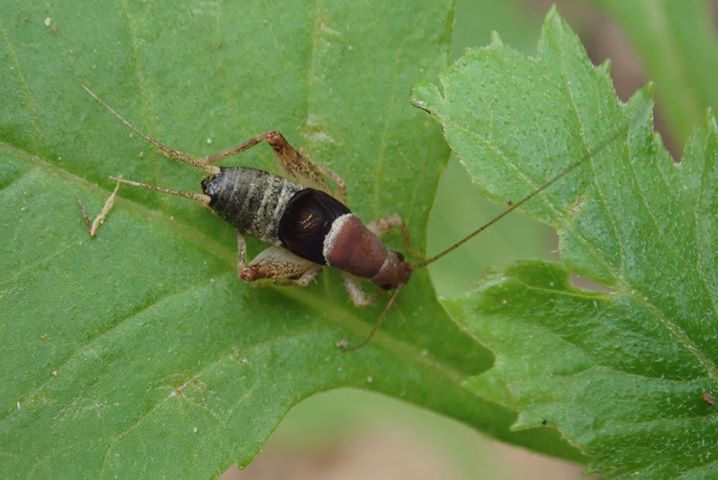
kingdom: Animalia
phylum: Arthropoda
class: Insecta
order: Orthoptera
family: Mogoplistidae
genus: Ornebius
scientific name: Ornebius infuscatus
